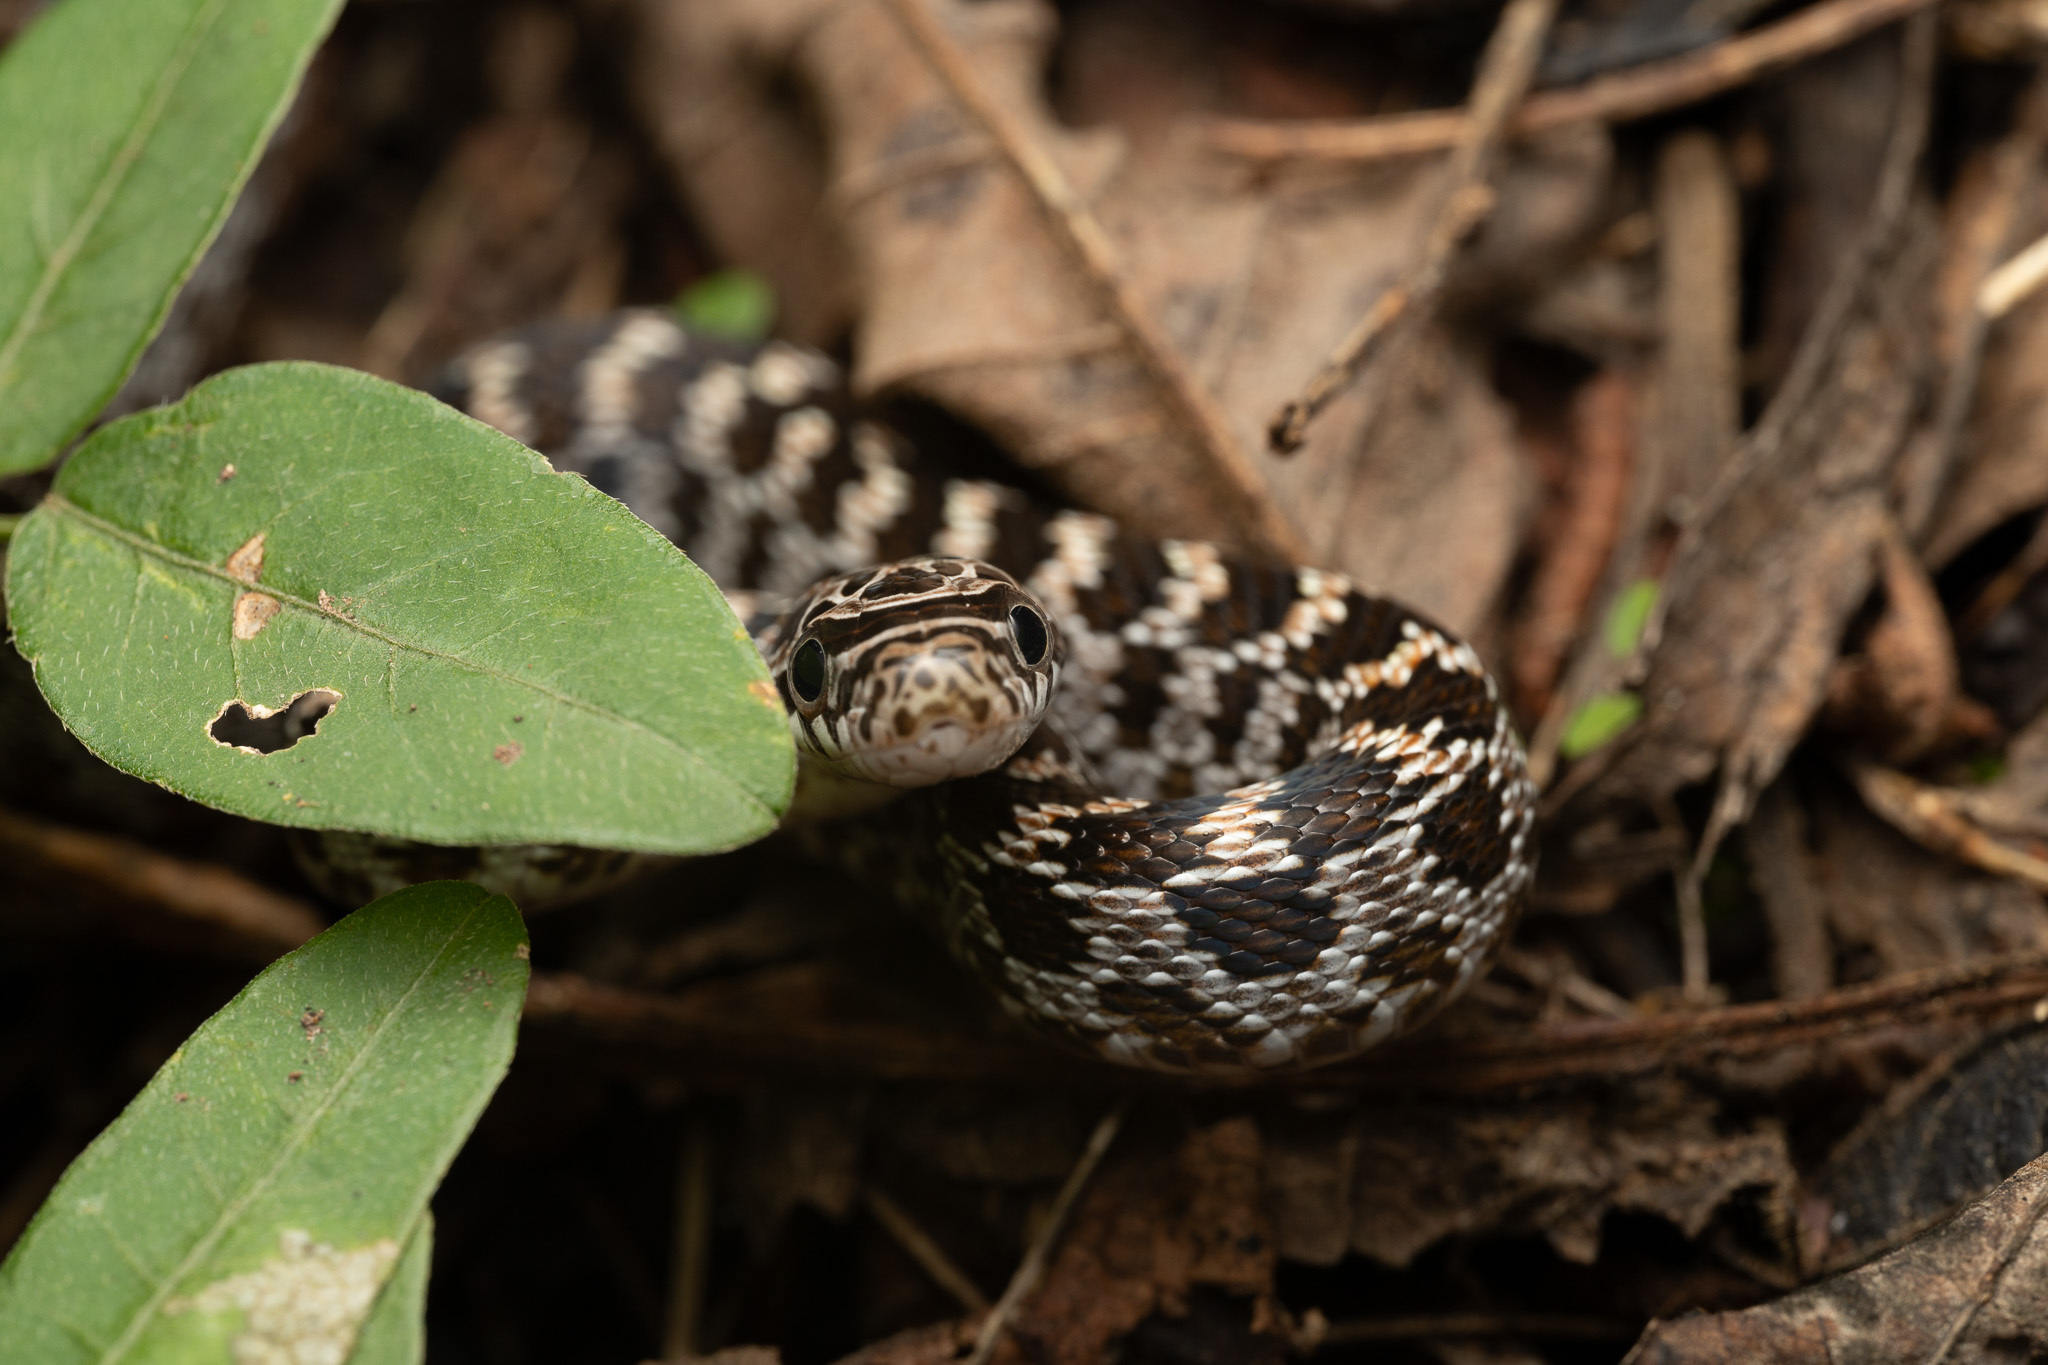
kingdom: Animalia
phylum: Chordata
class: Squamata
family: Colubridae
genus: Senticolis
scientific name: Senticolis triaspis
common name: Green rat snake
